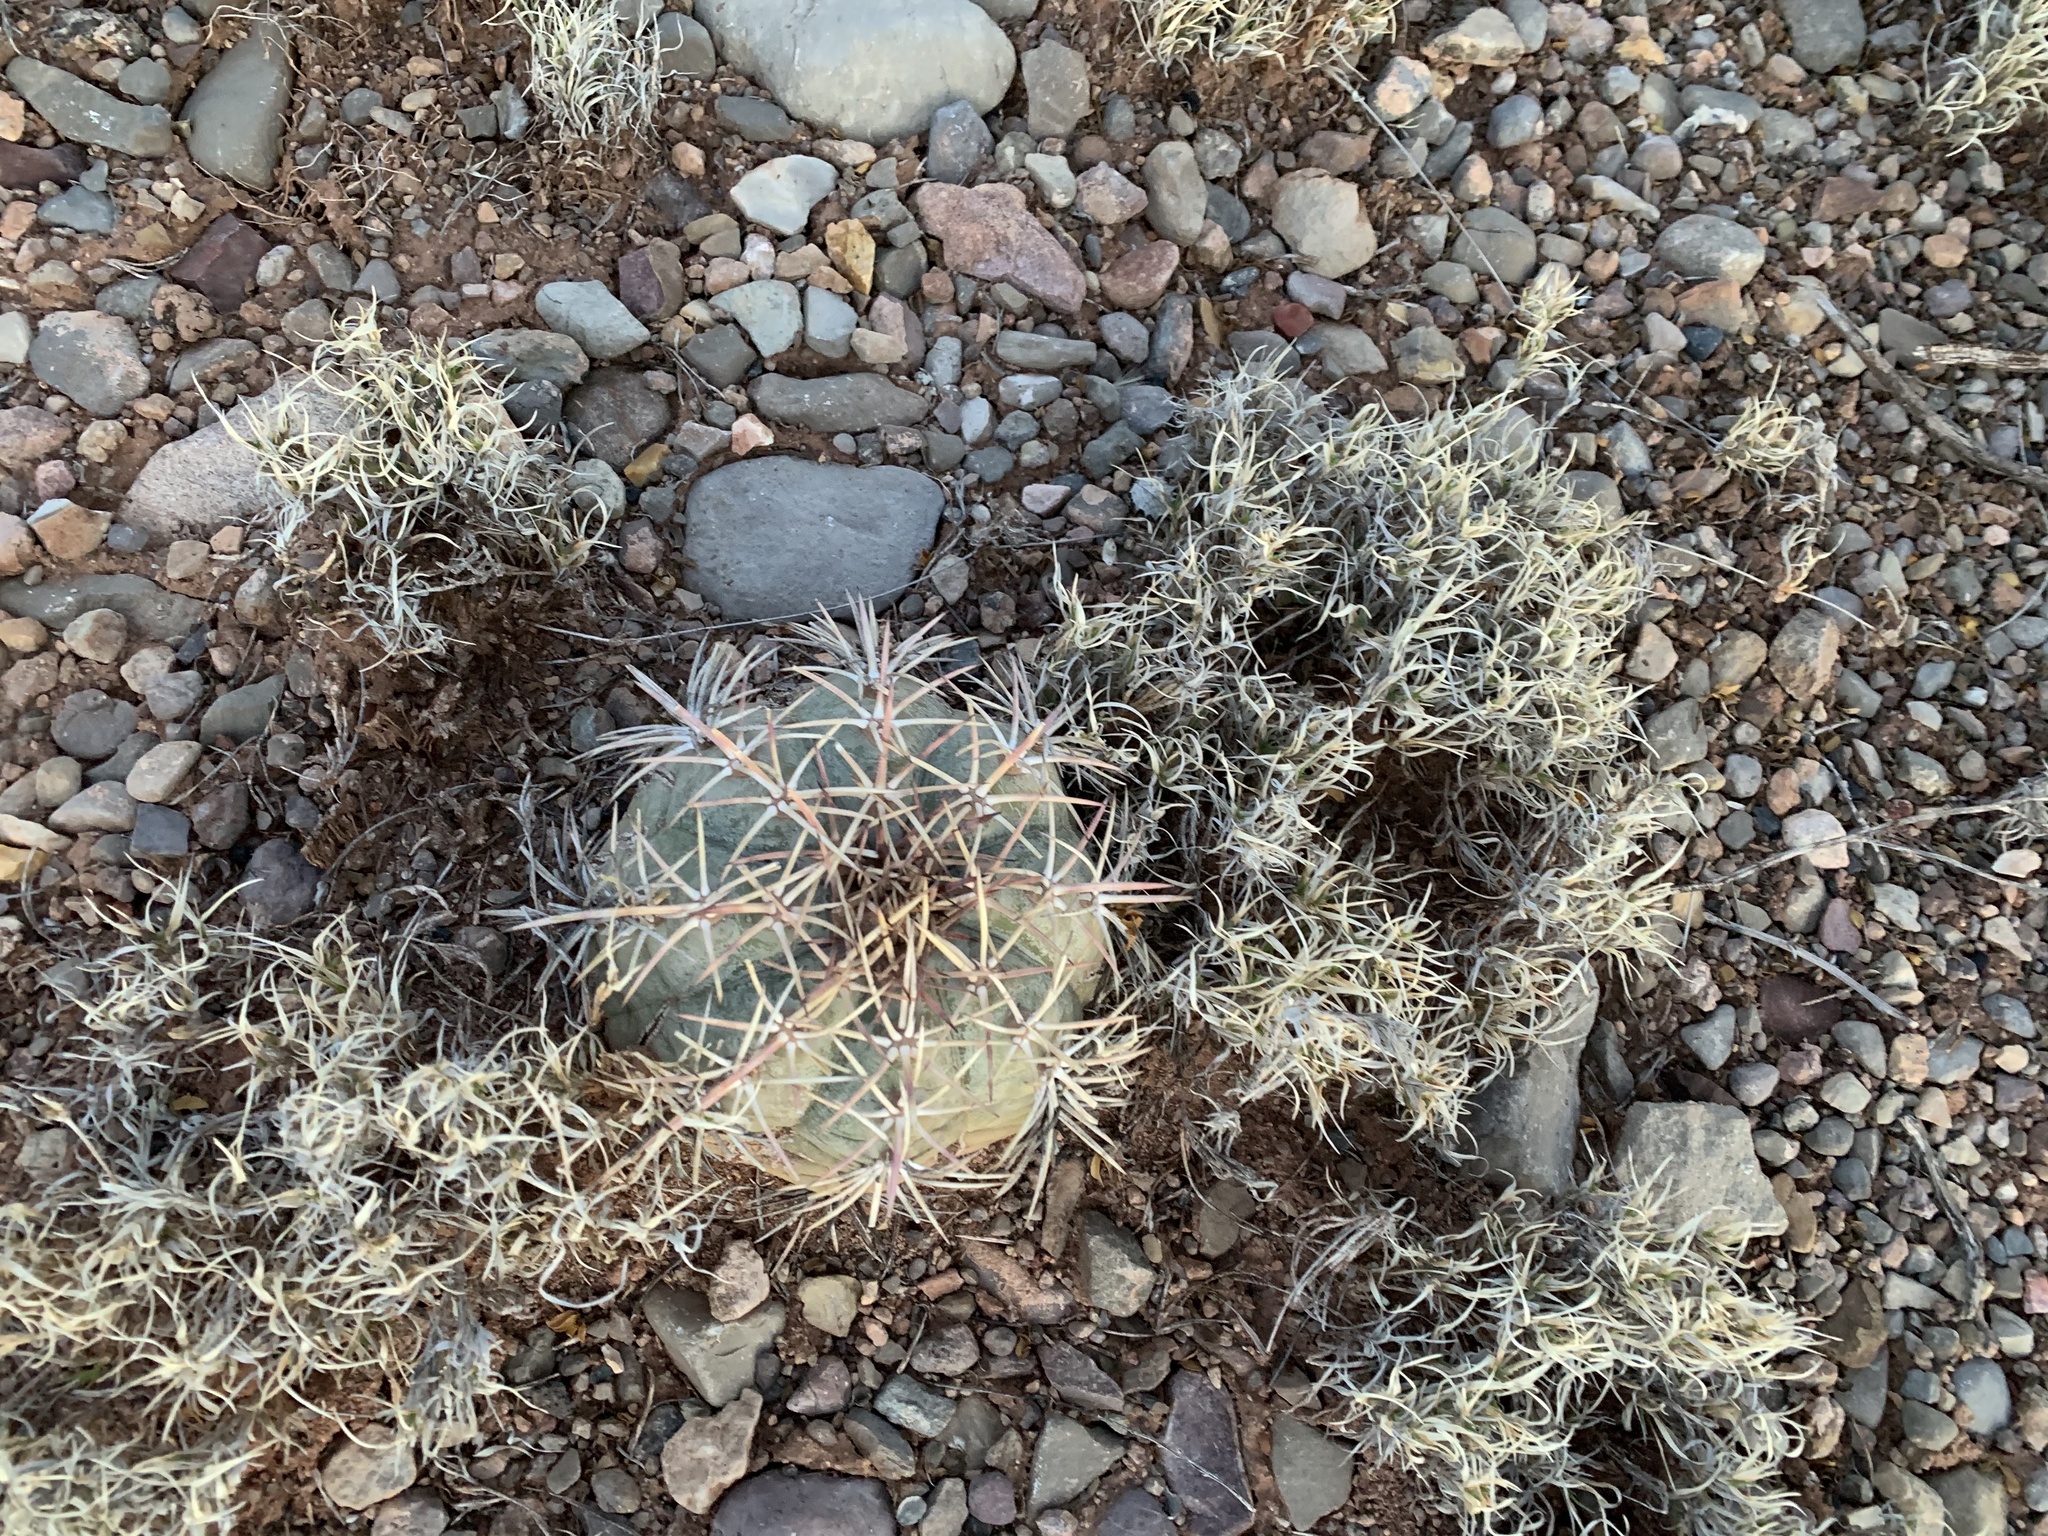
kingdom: Plantae
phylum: Tracheophyta
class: Magnoliopsida
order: Caryophyllales
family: Cactaceae
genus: Echinocactus
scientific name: Echinocactus horizonthalonius
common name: Devilshead
